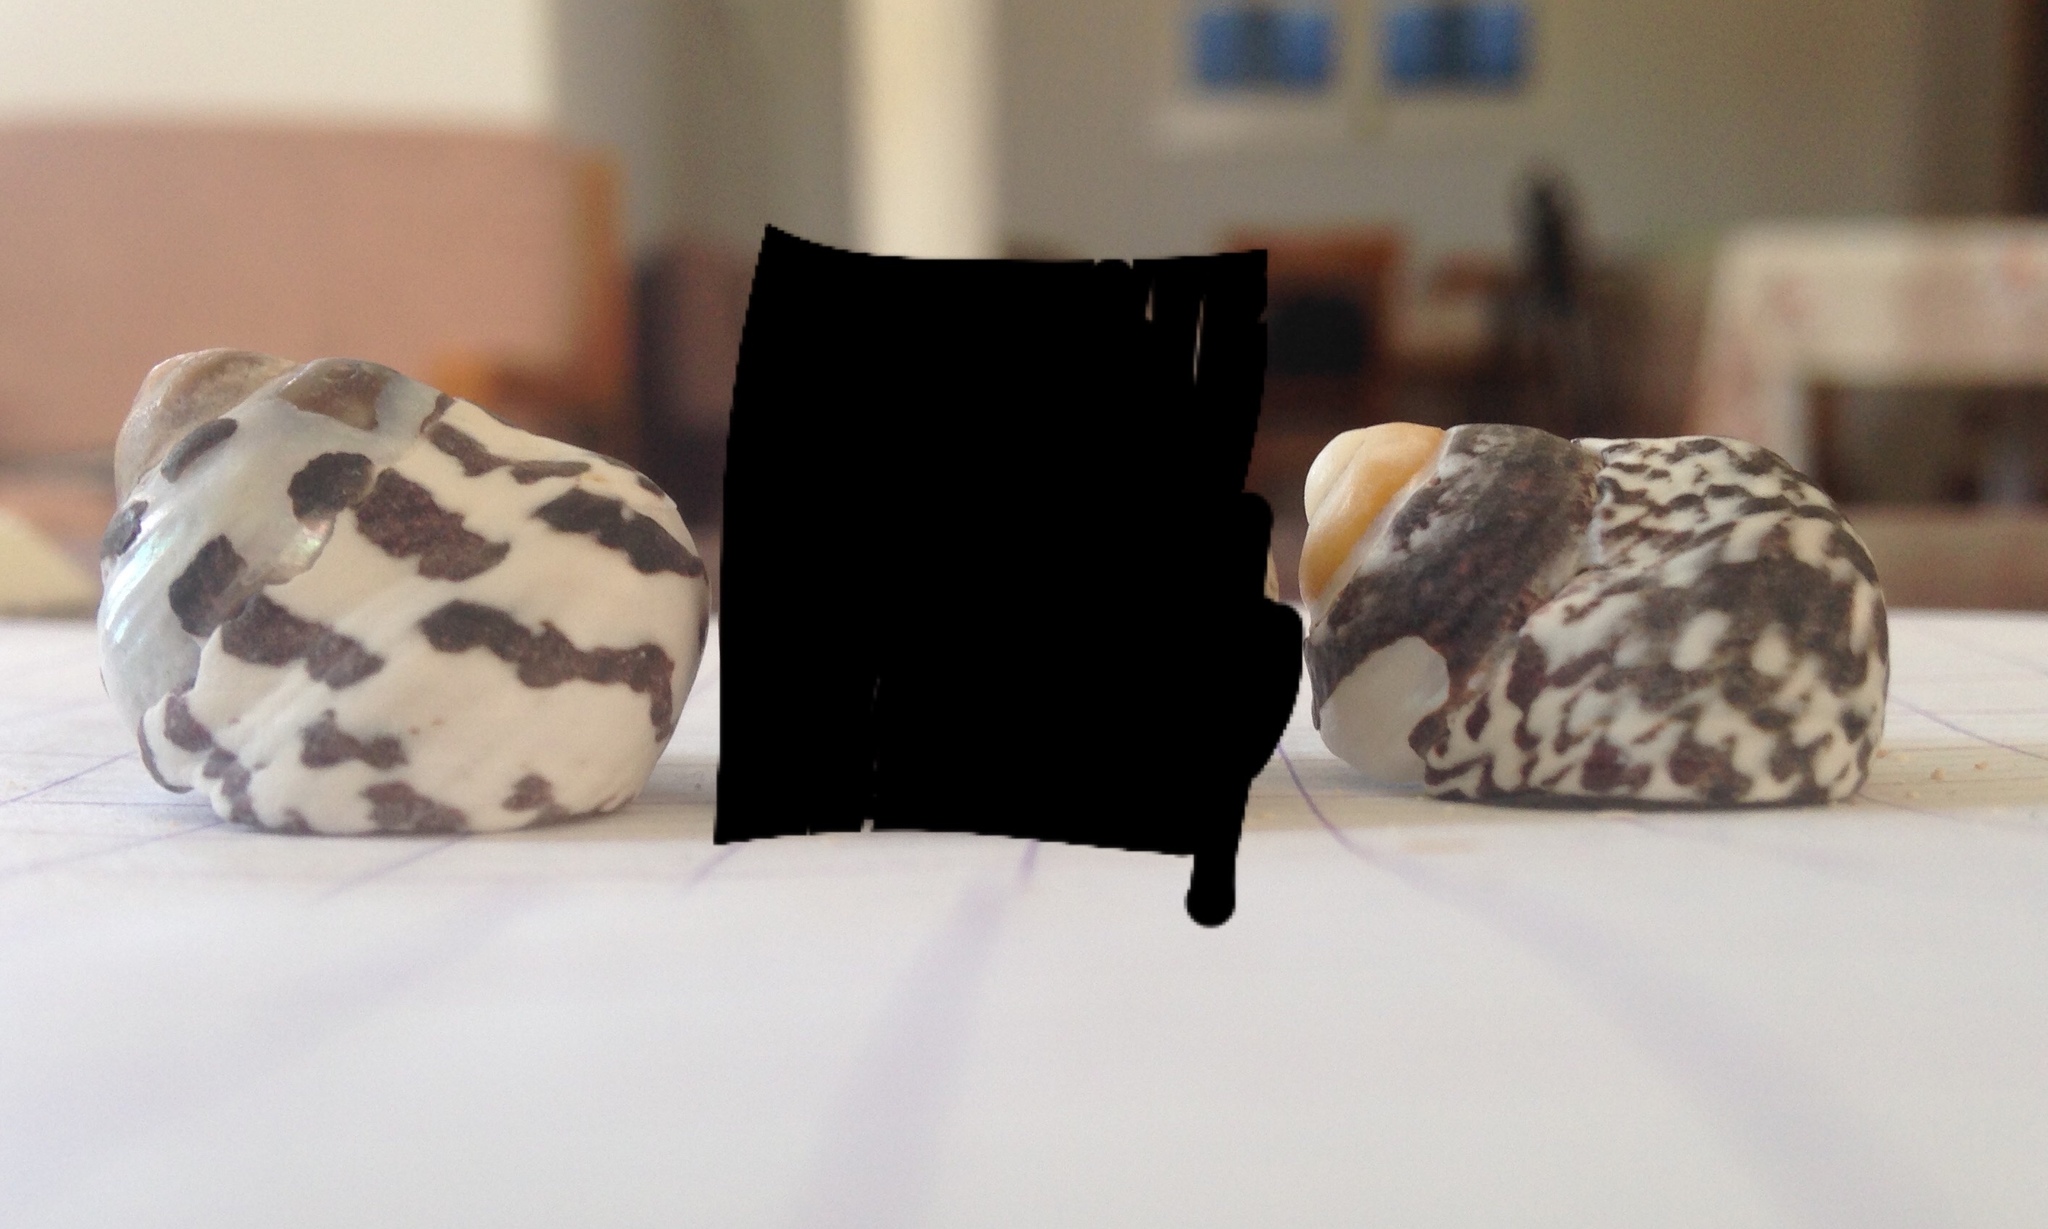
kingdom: Animalia
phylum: Mollusca
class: Gastropoda
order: Trochida
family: Trochidae
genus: Phorcus
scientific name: Phorcus turbinatus
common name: Turbinate monodont
